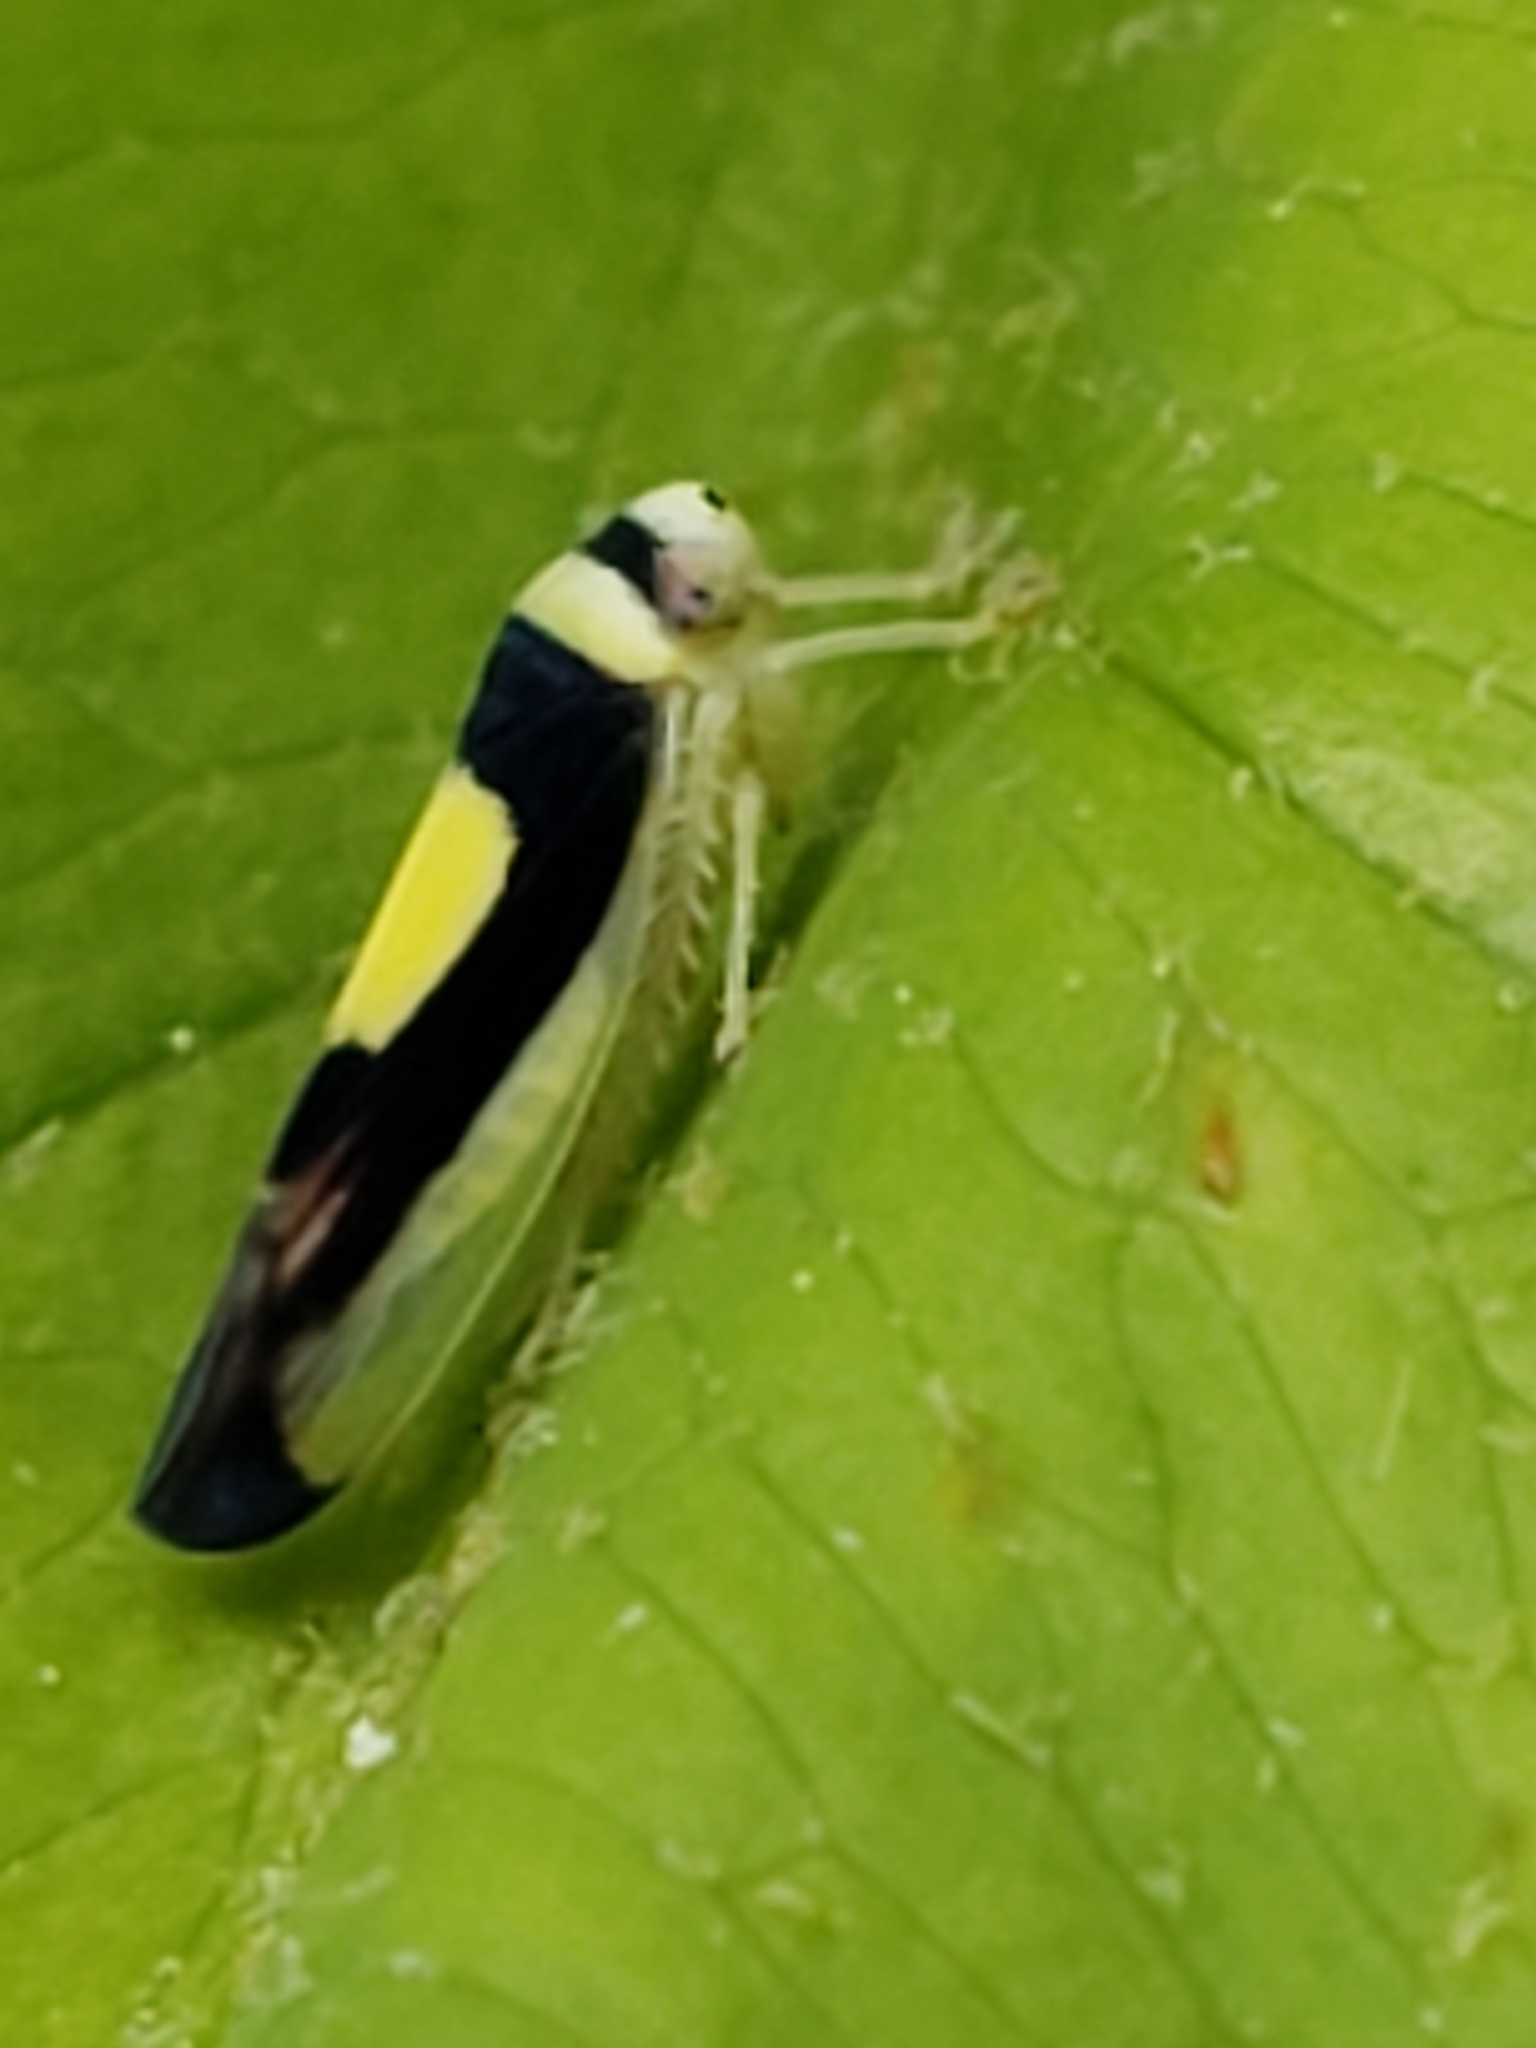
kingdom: Animalia
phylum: Arthropoda
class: Insecta
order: Hemiptera
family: Cicadellidae
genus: Colladonus
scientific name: Colladonus clitellarius
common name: The saddleback leafhopper
